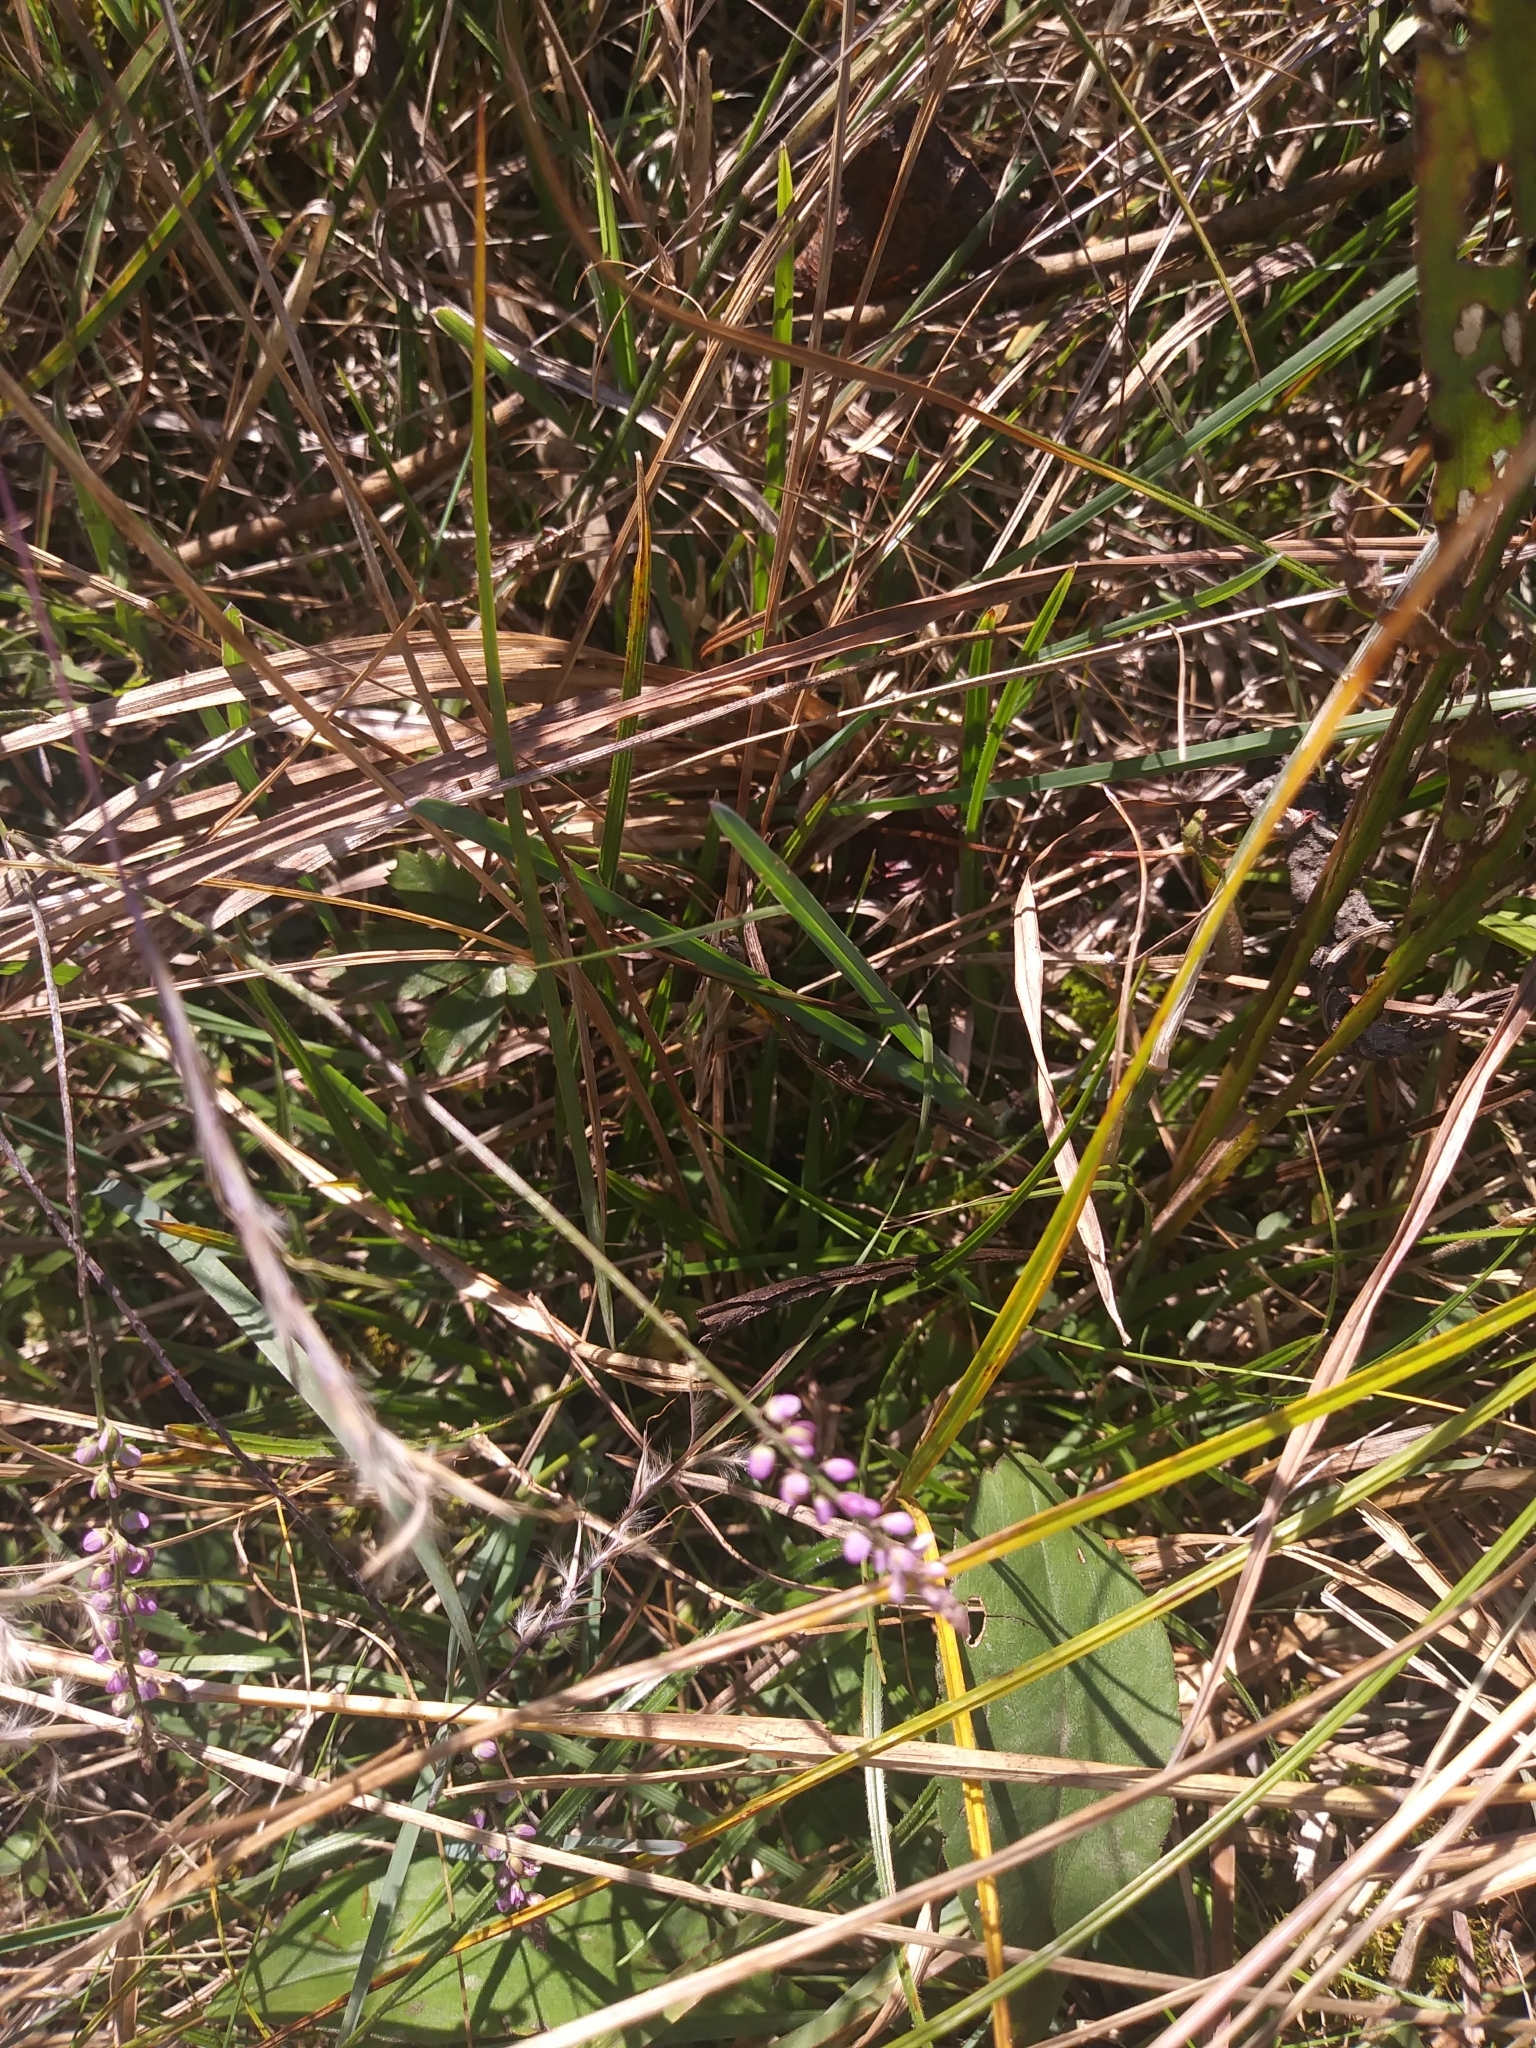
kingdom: Plantae
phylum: Tracheophyta
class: Magnoliopsida
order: Fabales
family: Polygalaceae
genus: Polygala
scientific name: Polygala verticillata
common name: Whorl milkwort
